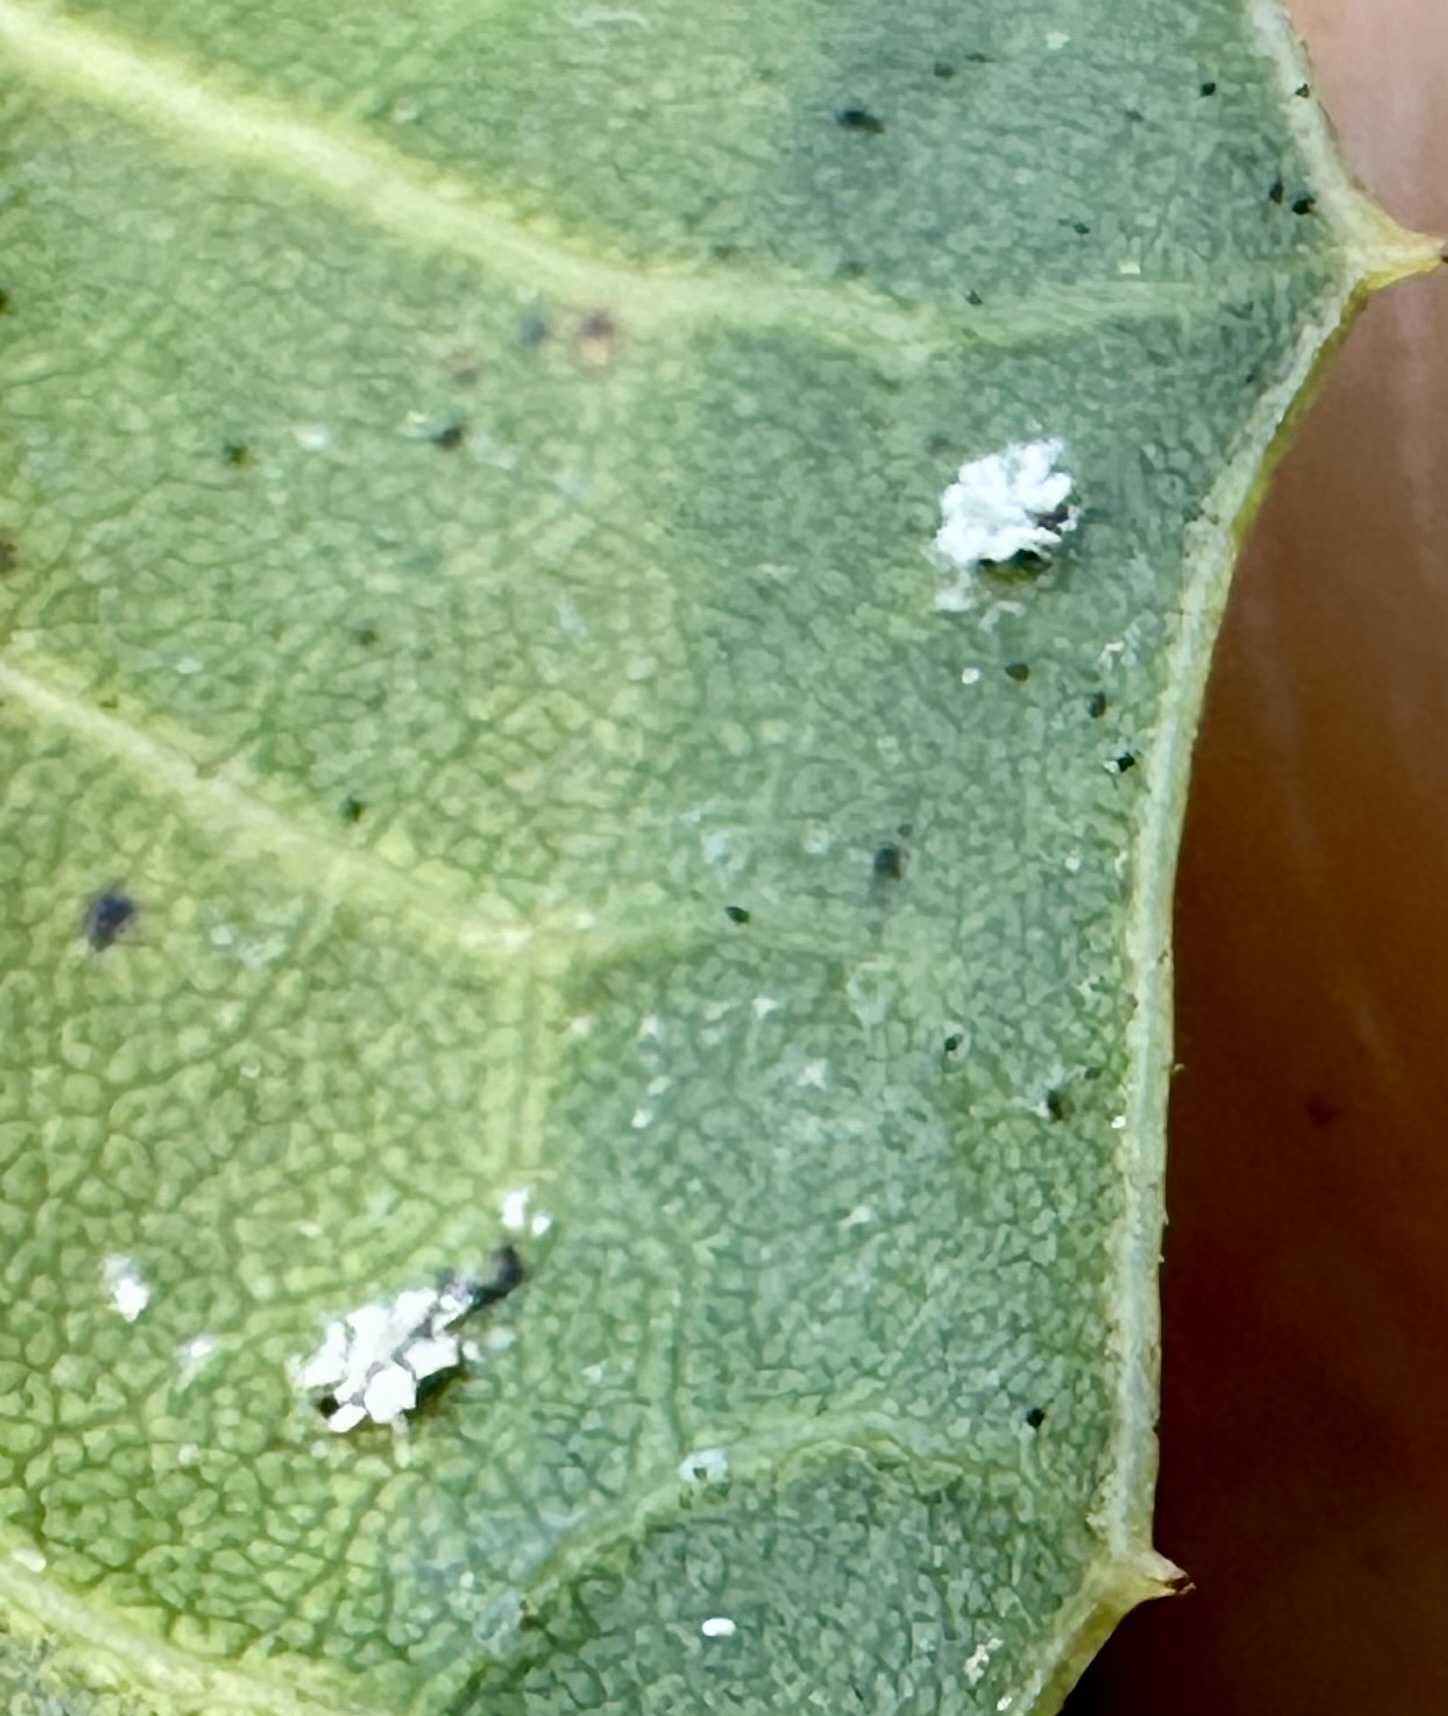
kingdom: Animalia
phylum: Arthropoda
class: Insecta
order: Hemiptera
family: Aleyrodidae
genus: Aleuroplatus
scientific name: Aleuroplatus coronata
